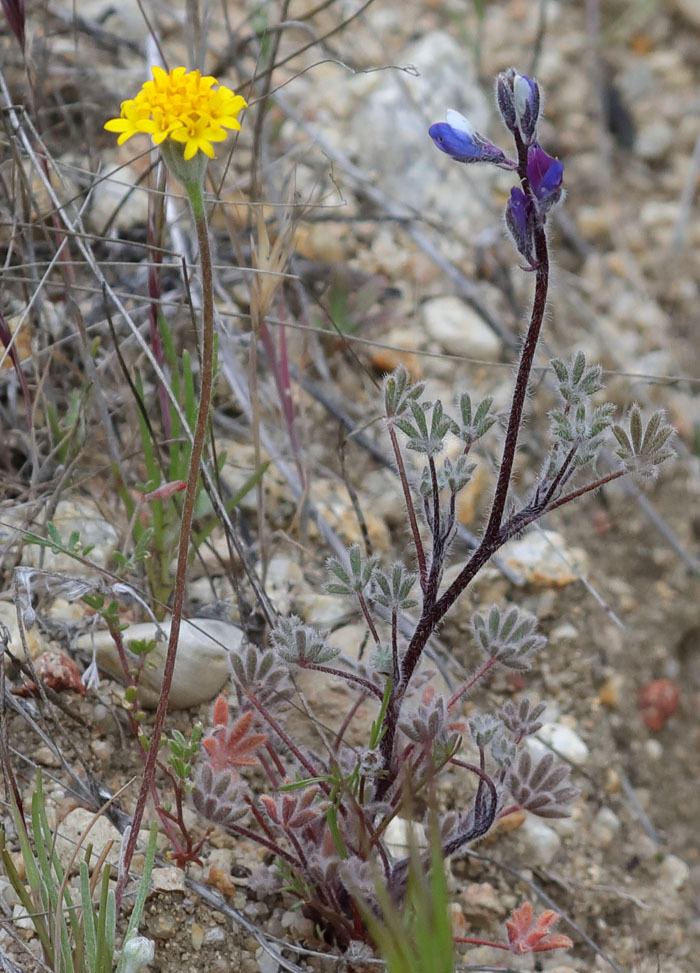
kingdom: Plantae
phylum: Tracheophyta
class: Magnoliopsida
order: Asterales
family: Asteraceae
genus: Chaenactis
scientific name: Chaenactis glabriuscula
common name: Yellow pincushion
